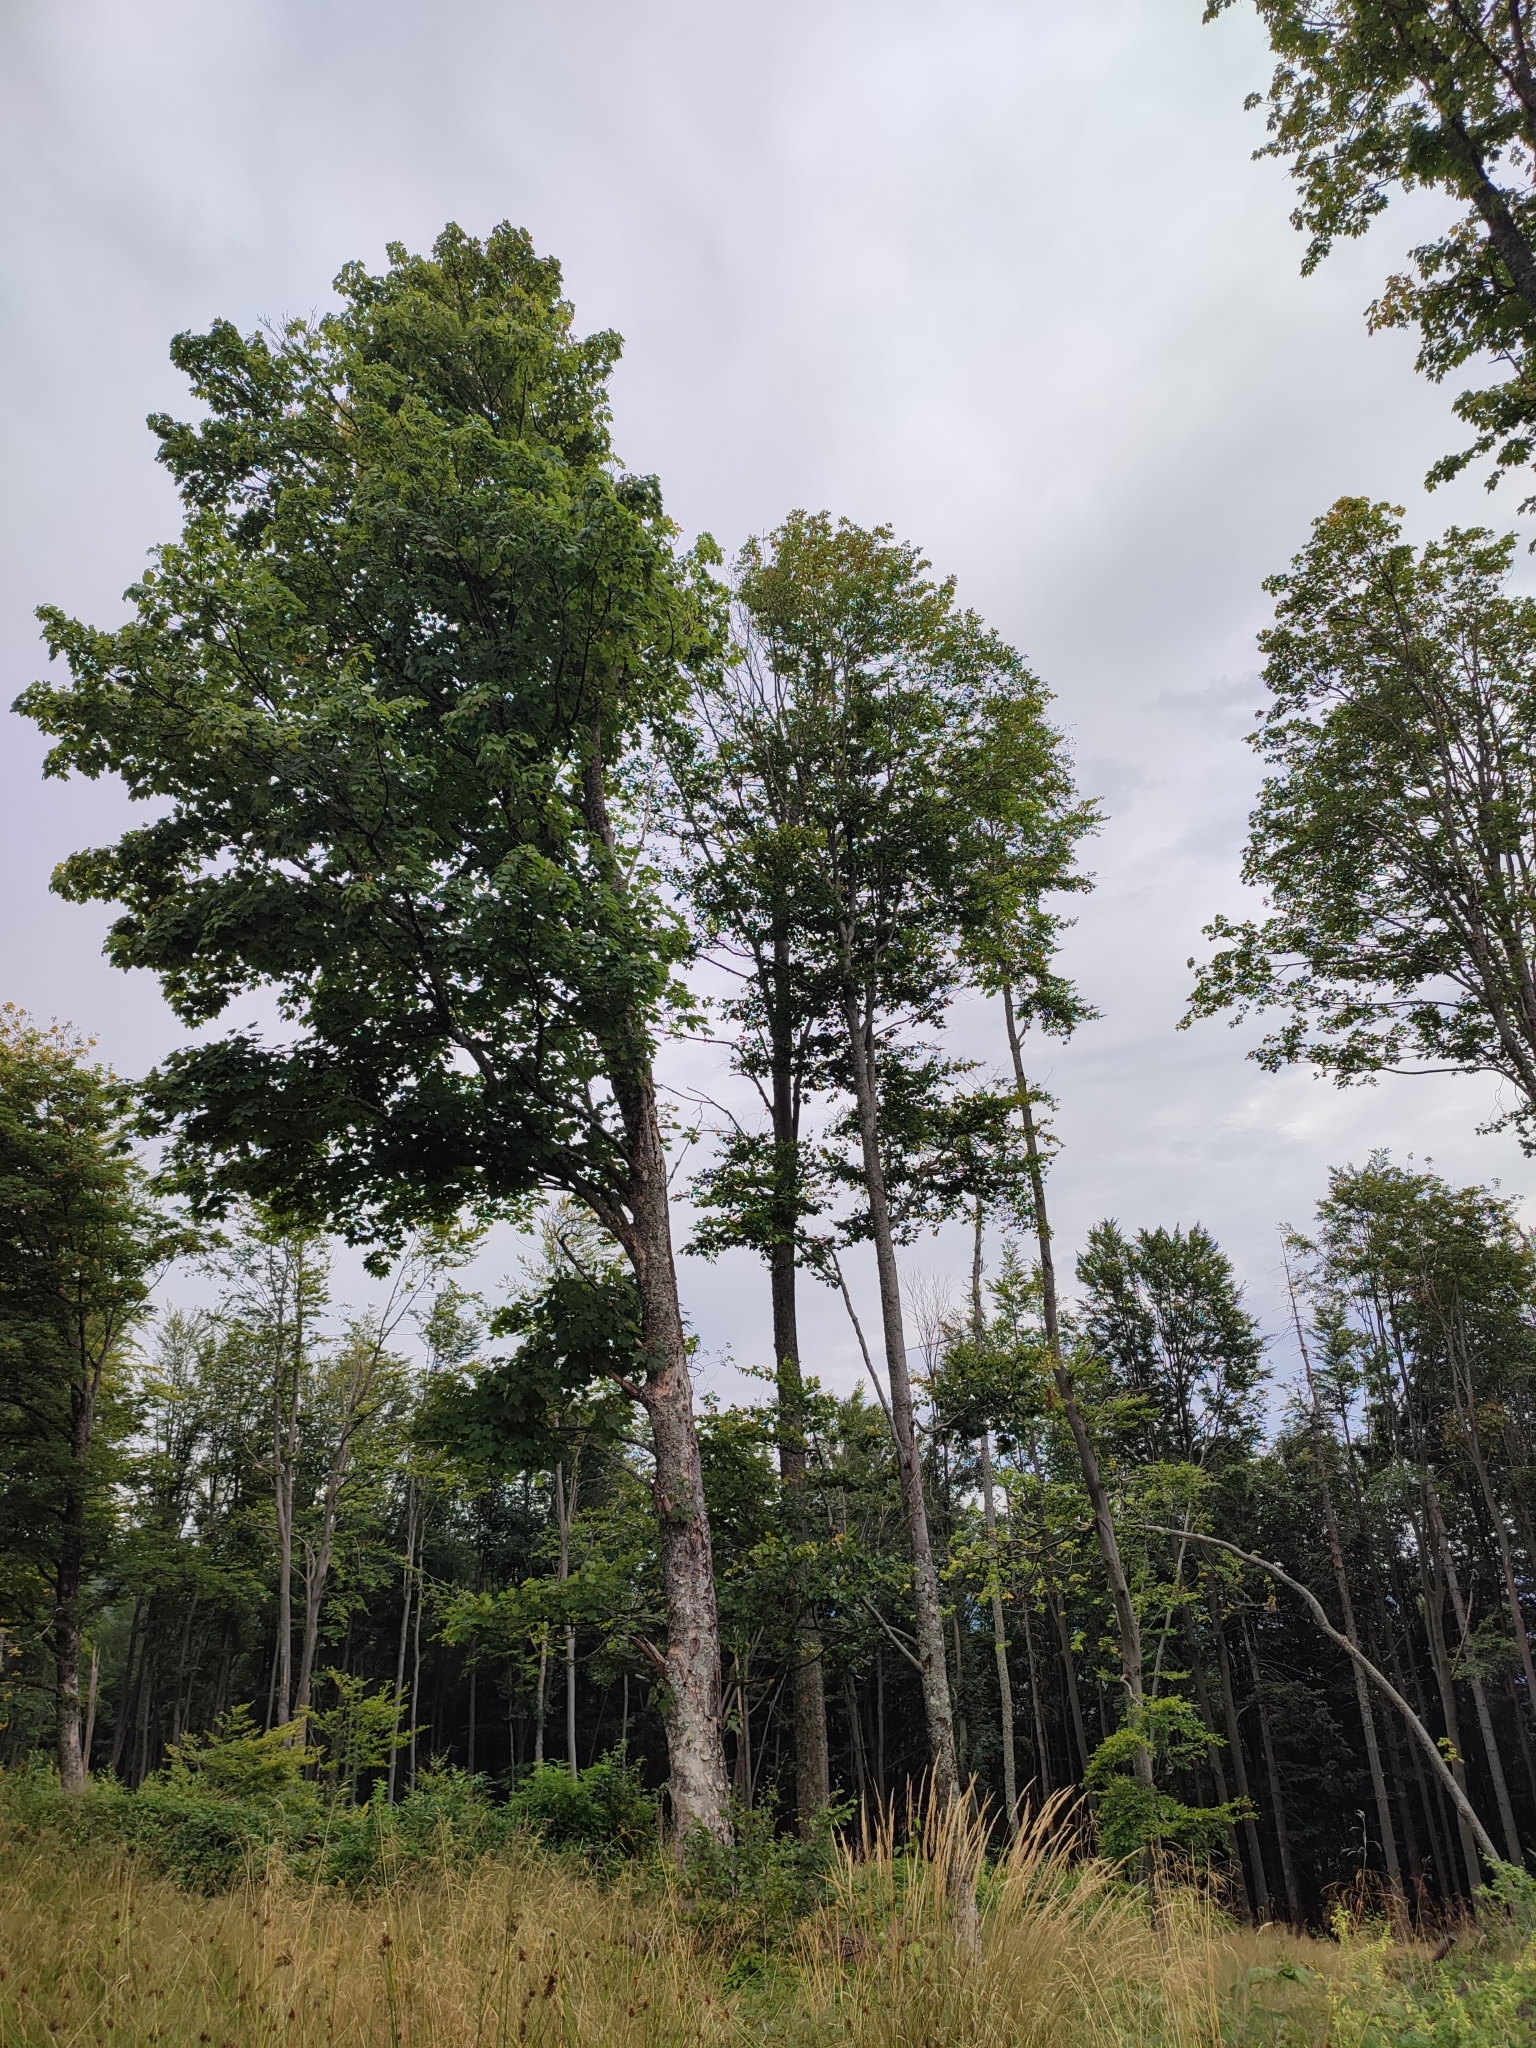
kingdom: Plantae
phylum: Tracheophyta
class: Magnoliopsida
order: Fagales
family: Fagaceae
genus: Fagus
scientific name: Fagus sylvatica
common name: Beech
